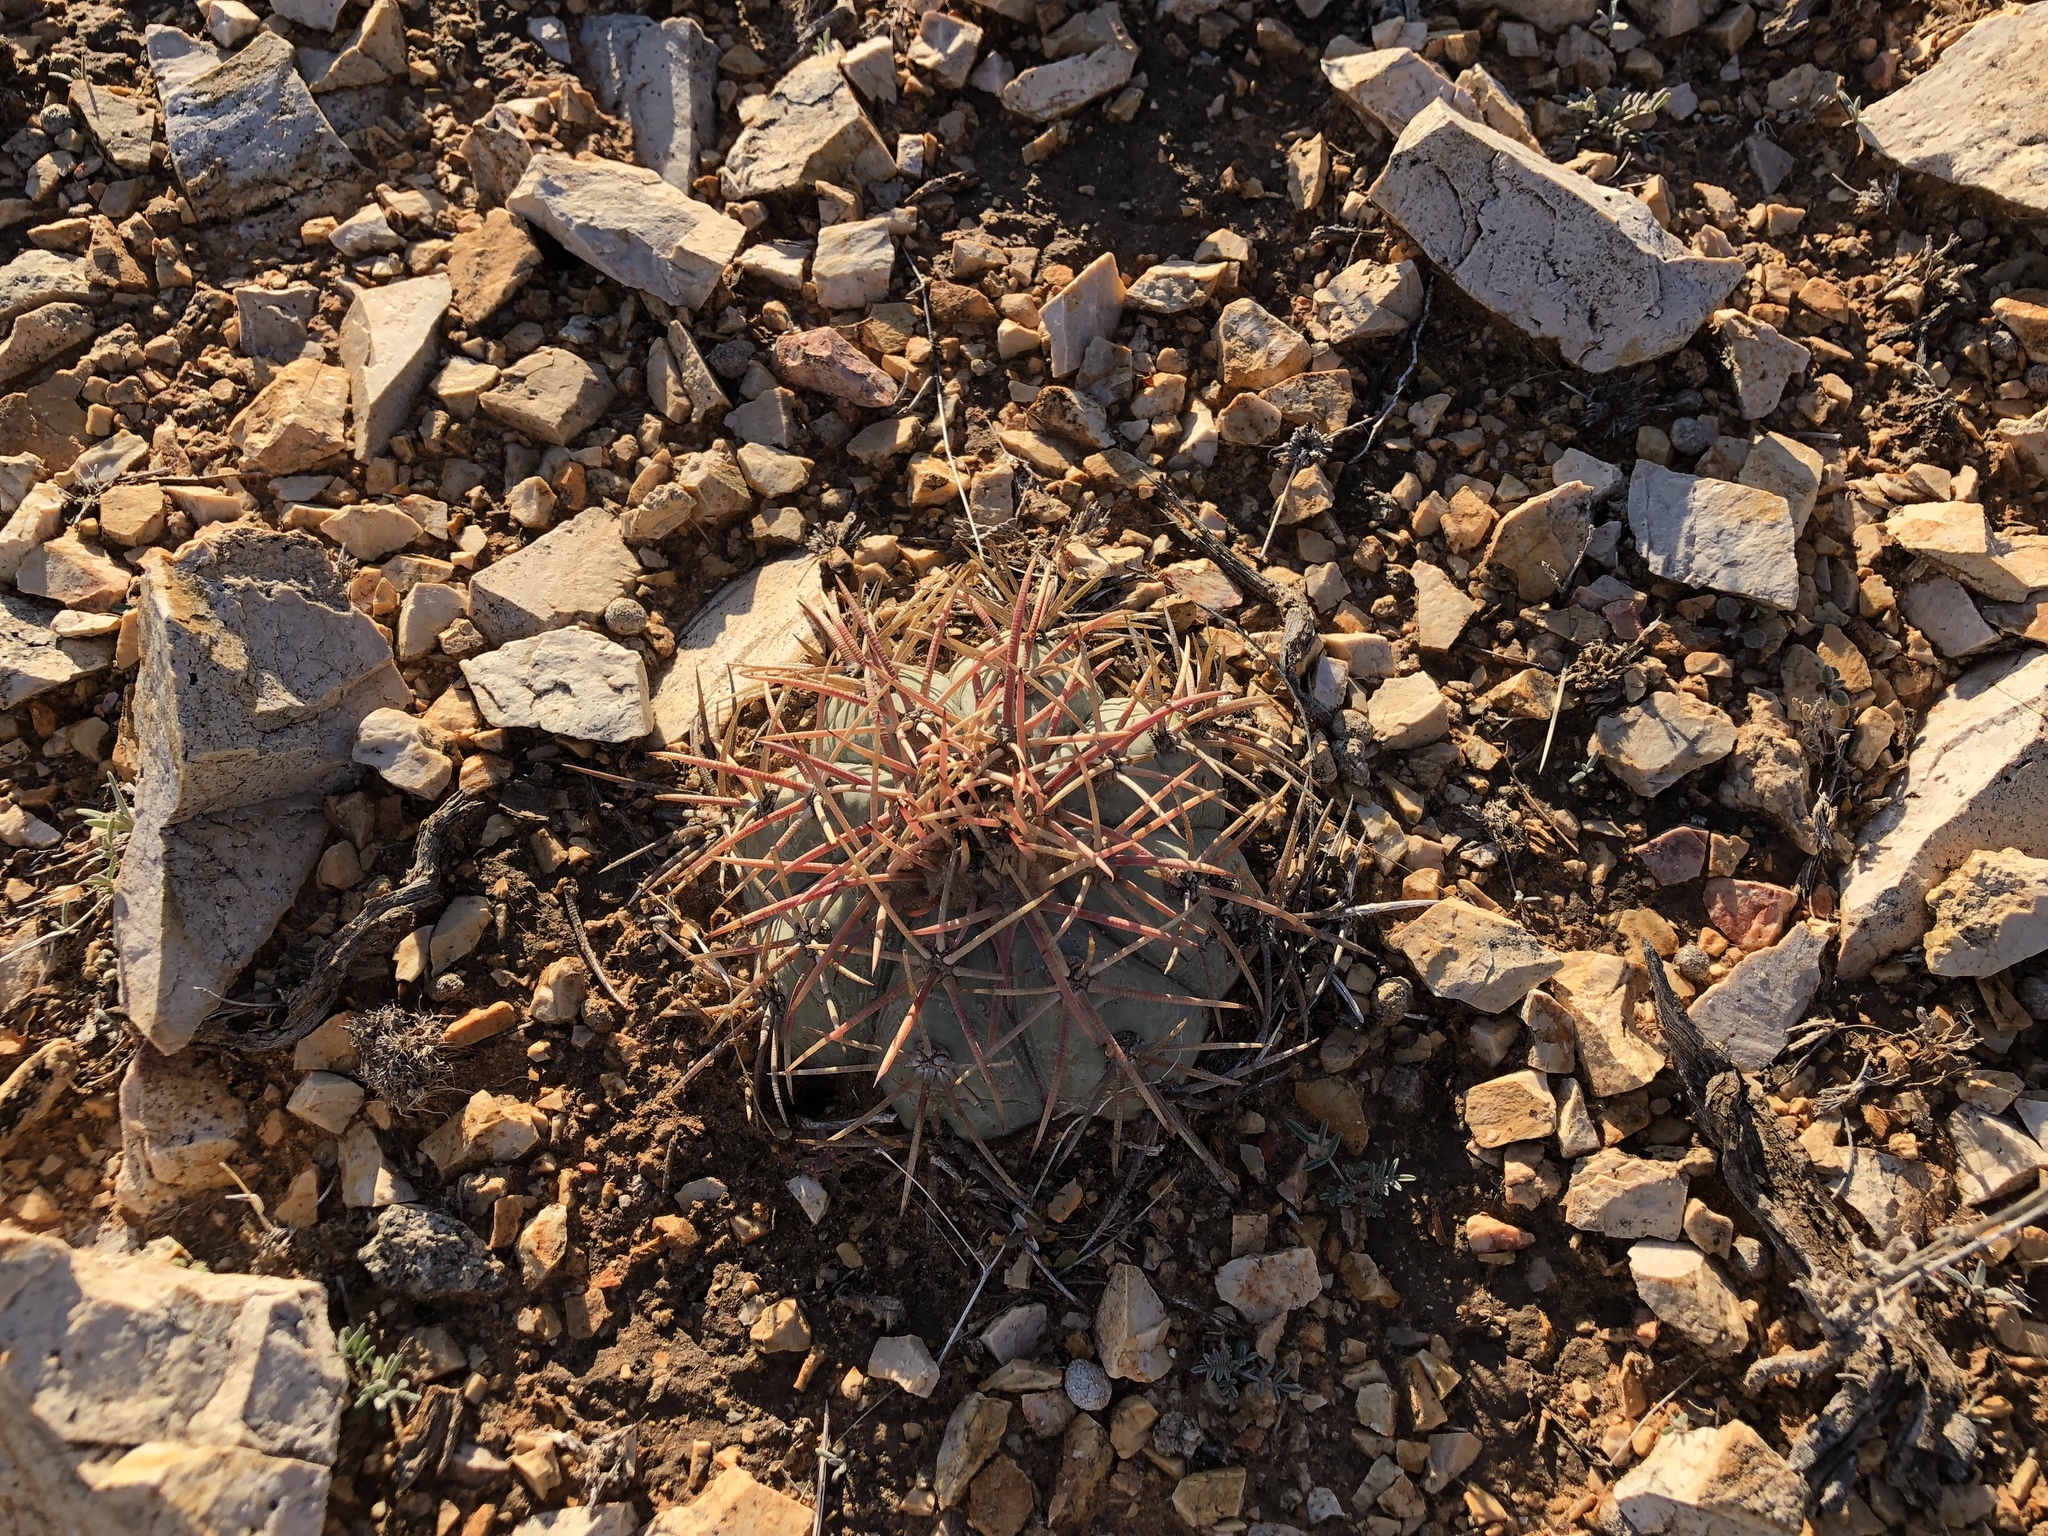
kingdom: Plantae
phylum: Tracheophyta
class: Magnoliopsida
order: Caryophyllales
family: Cactaceae
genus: Echinocactus
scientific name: Echinocactus horizonthalonius
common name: Devilshead
